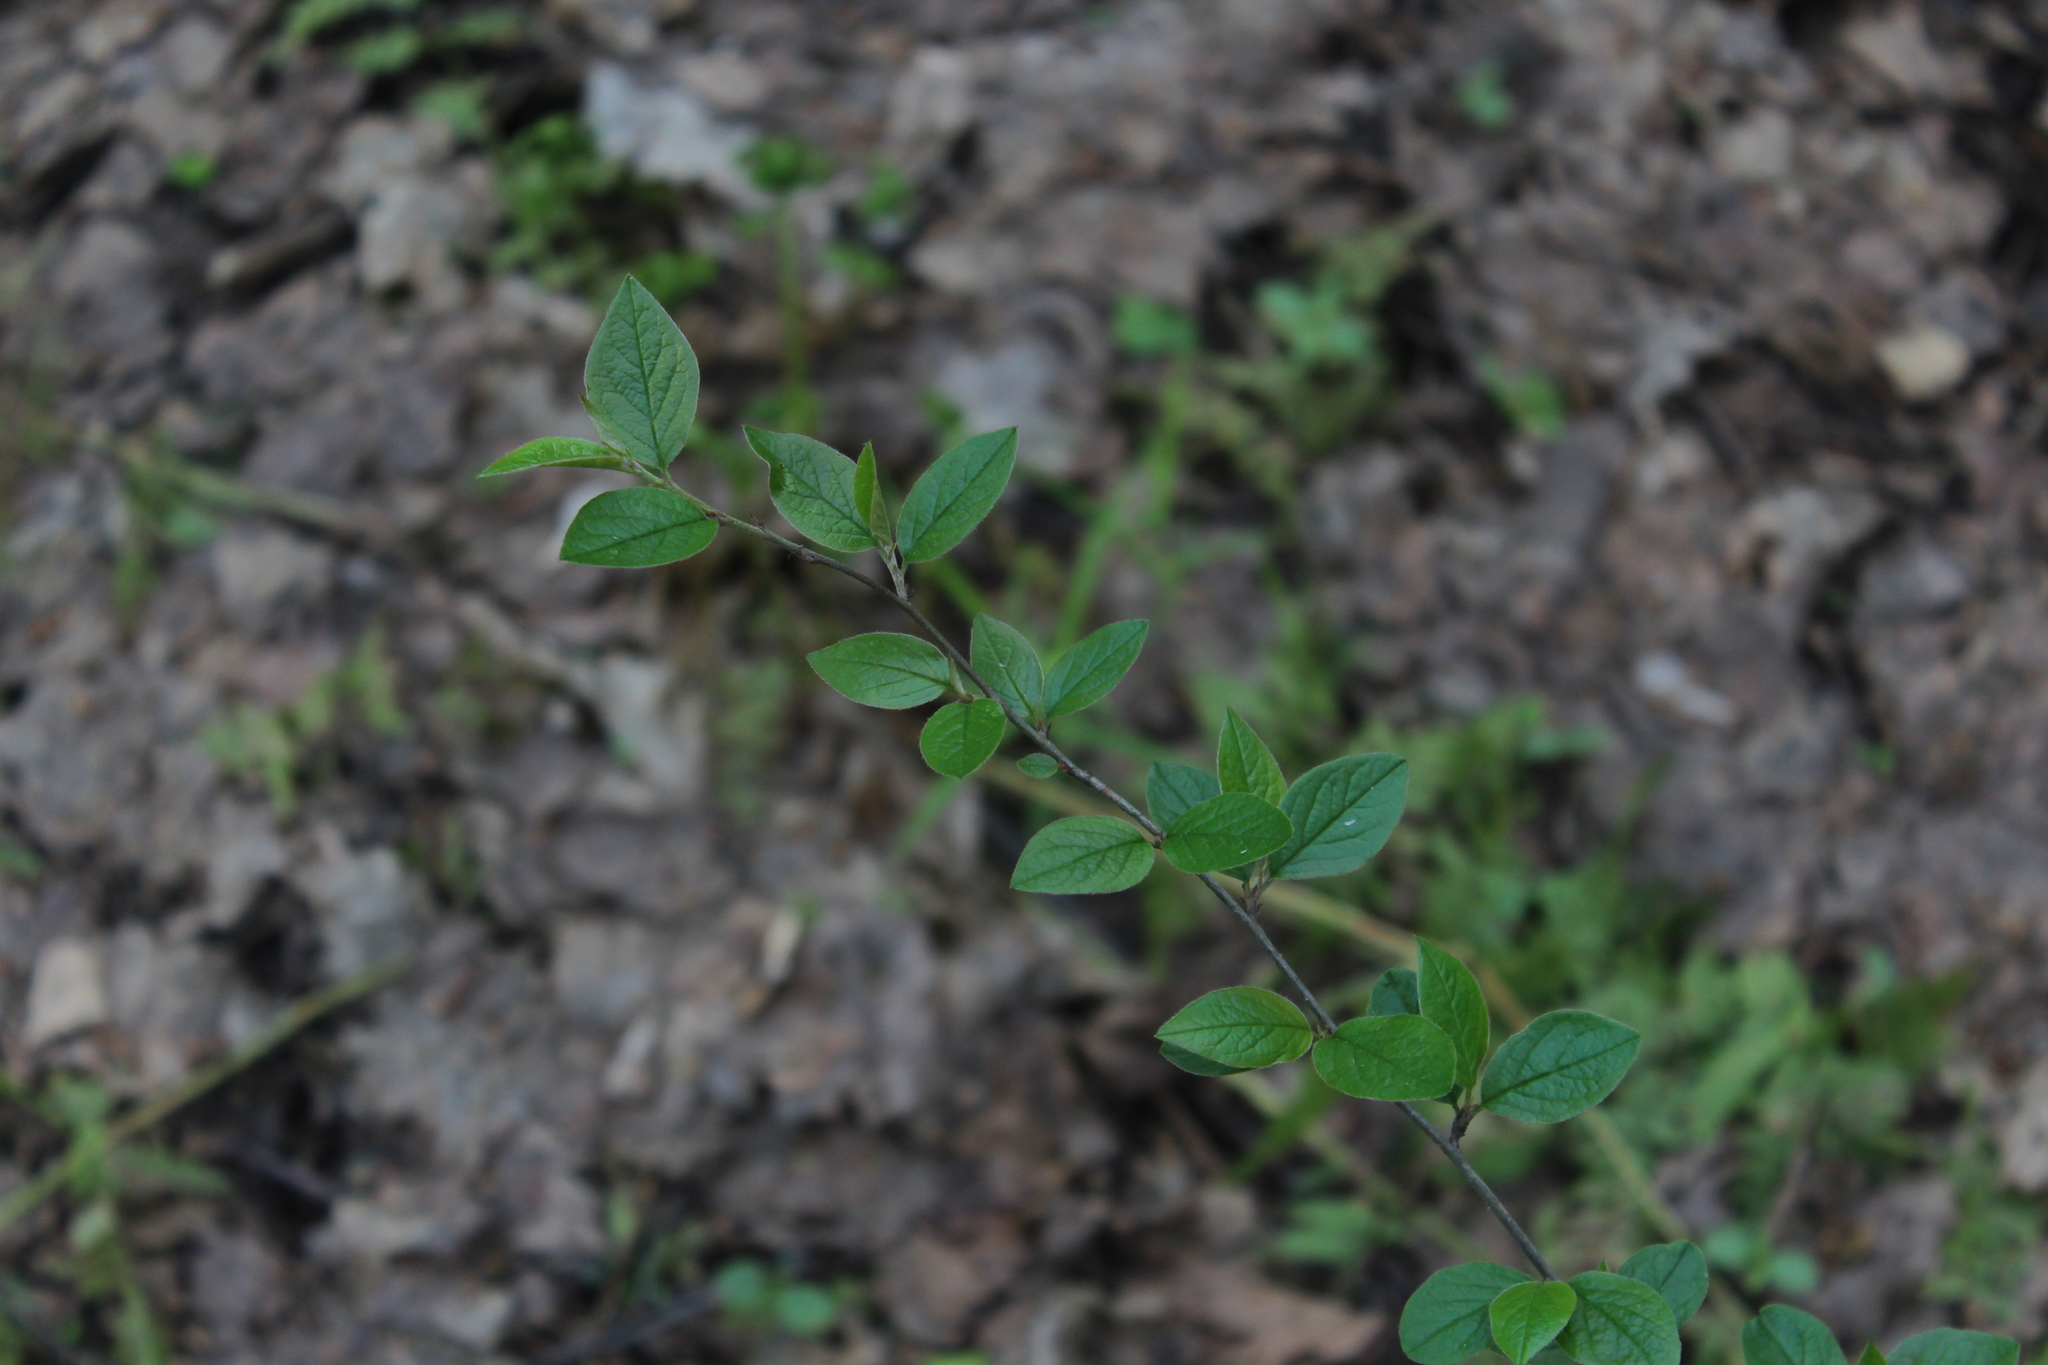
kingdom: Plantae
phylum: Tracheophyta
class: Magnoliopsida
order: Rosales
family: Rosaceae
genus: Cotoneaster
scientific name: Cotoneaster acutifolius
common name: Peking cotoneaster
